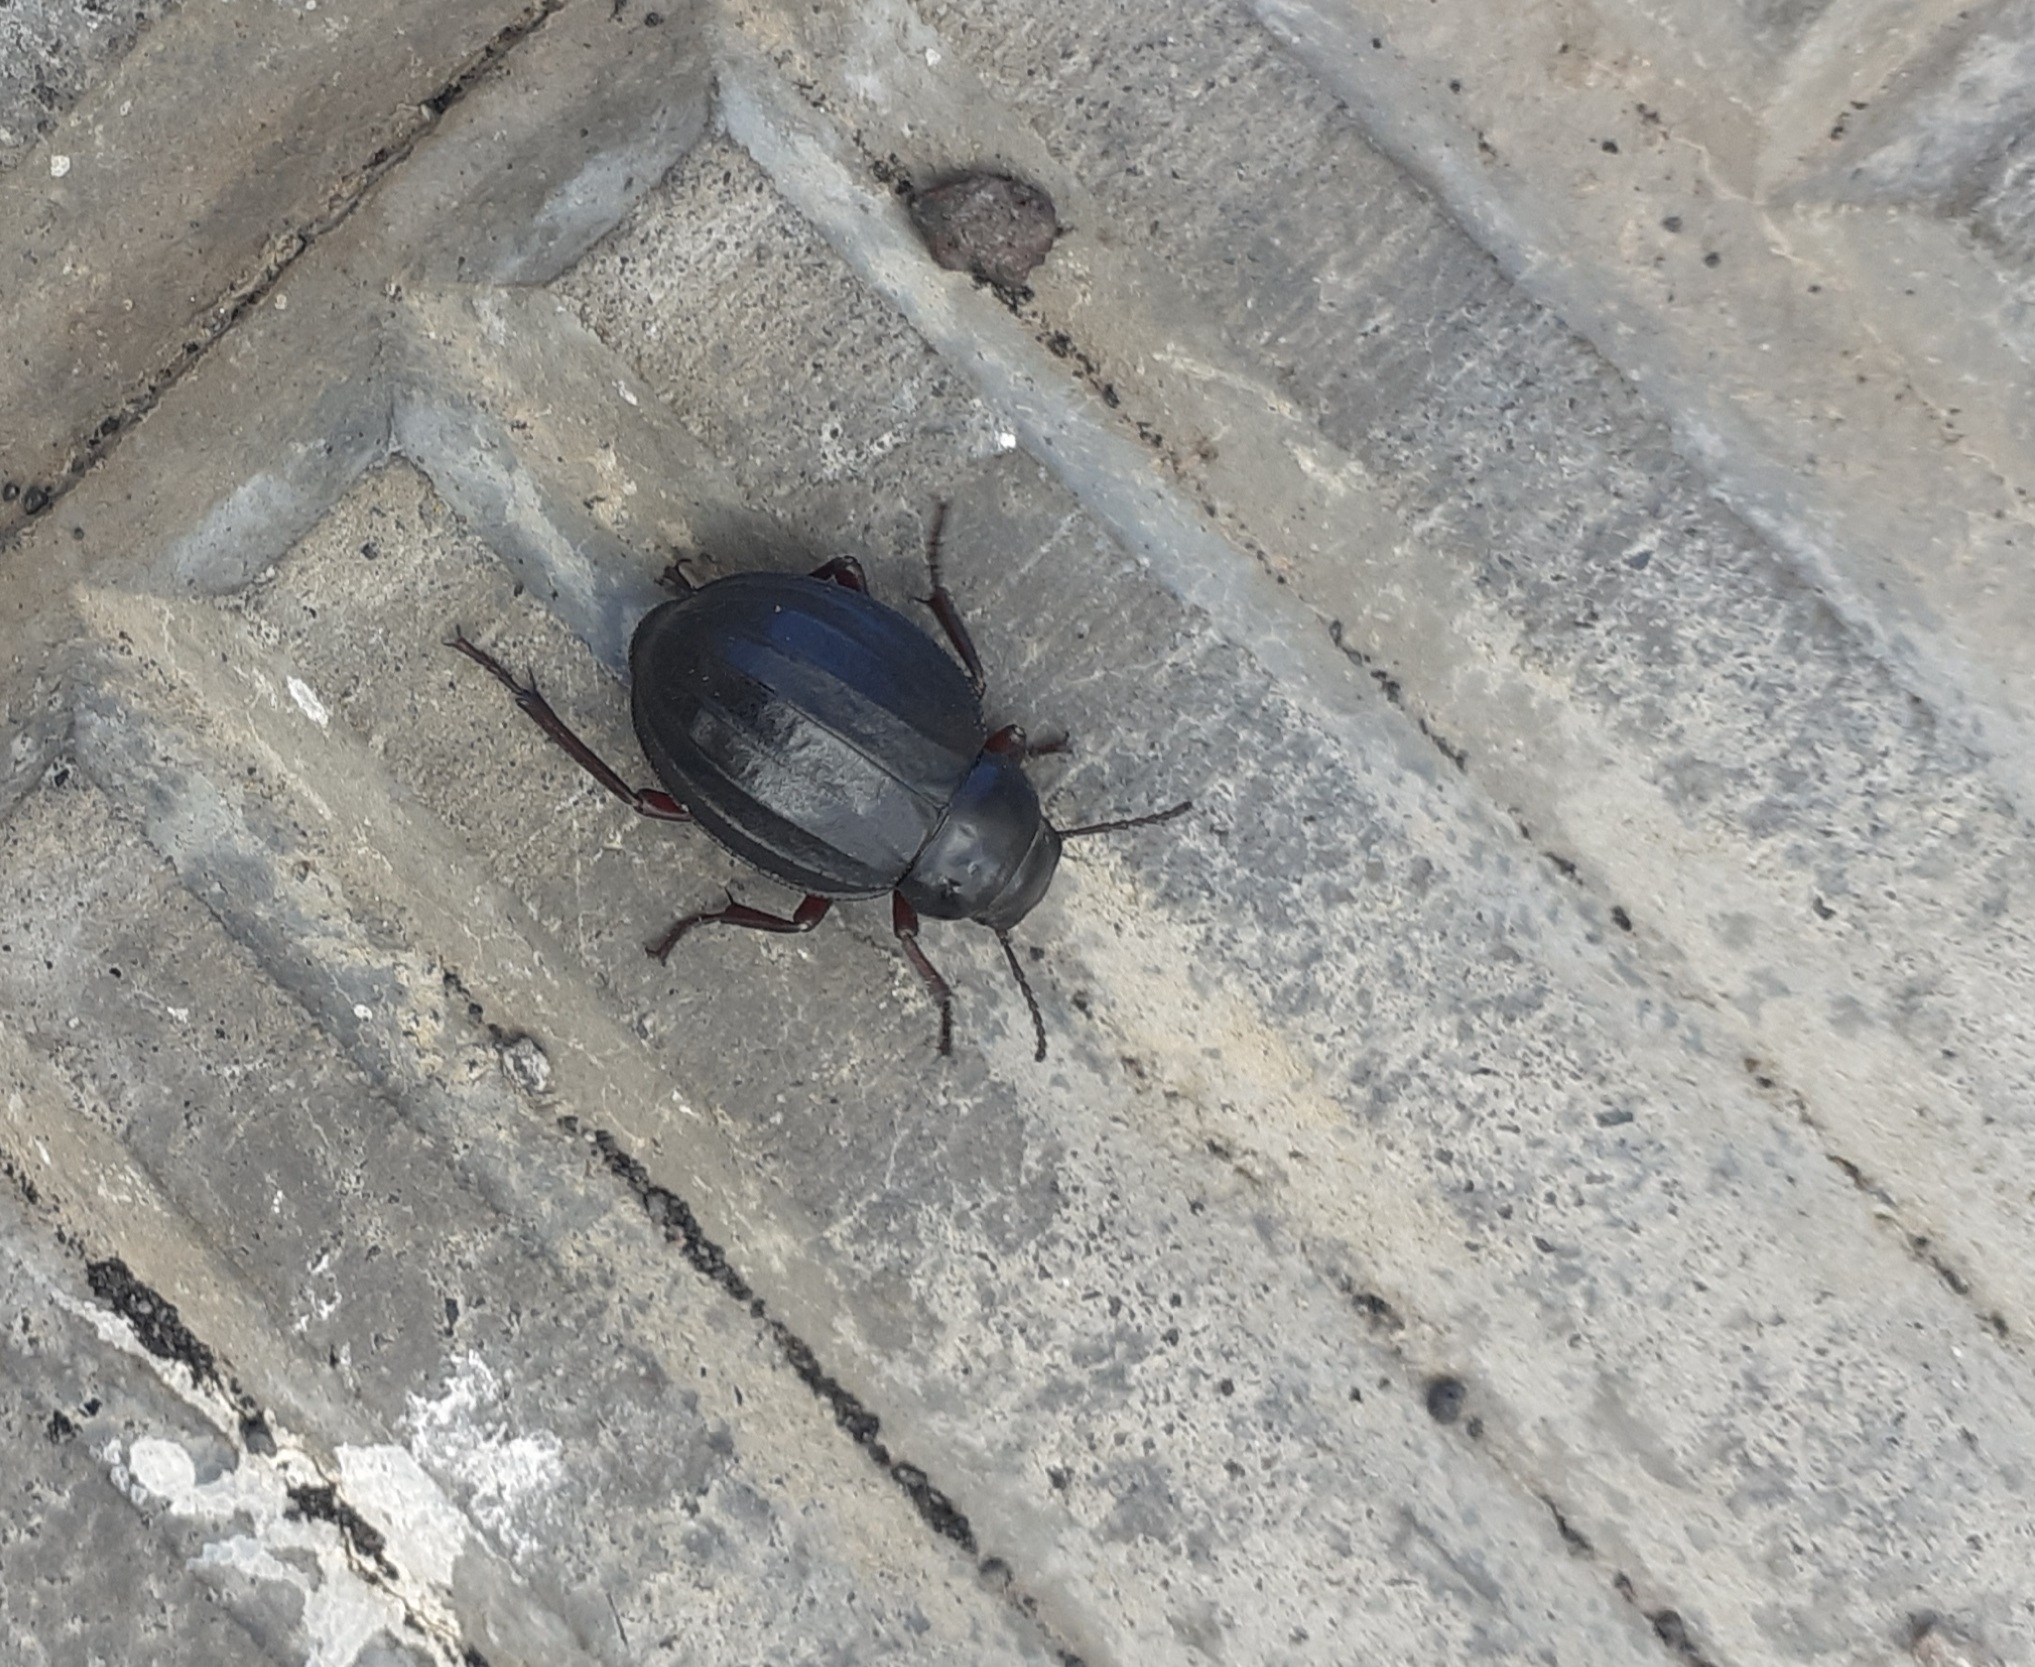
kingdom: Animalia
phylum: Arthropoda
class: Insecta
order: Coleoptera
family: Tenebrionidae
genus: Pimelia
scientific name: Pimelia laevigata
